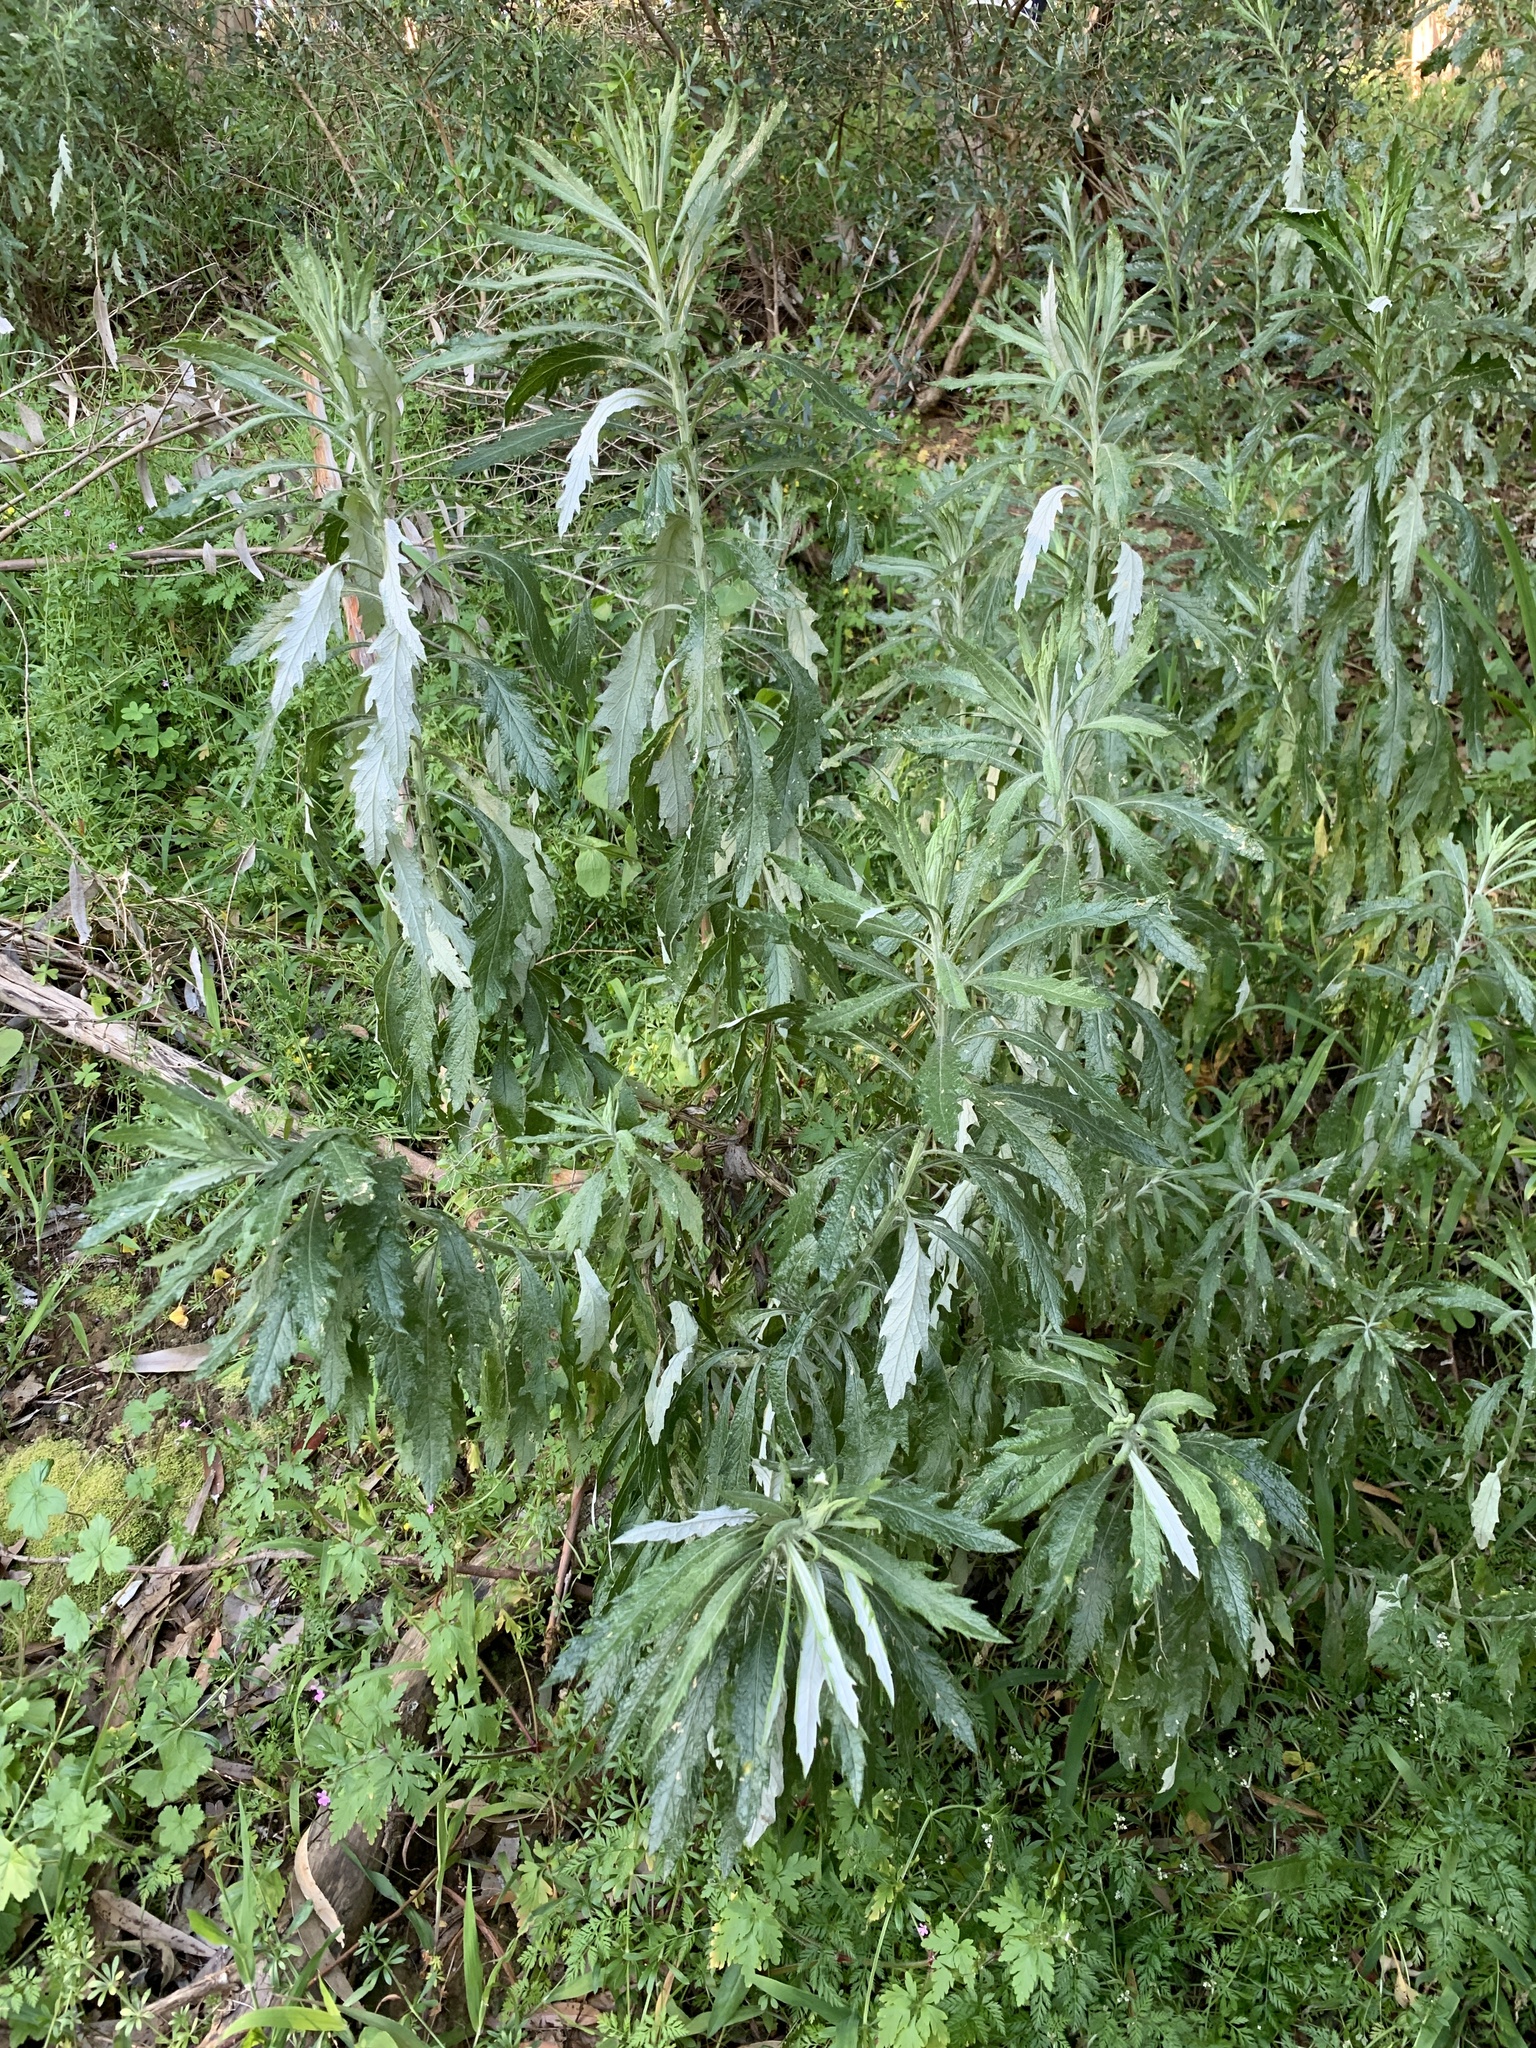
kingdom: Plantae
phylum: Tracheophyta
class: Magnoliopsida
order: Asterales
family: Asteraceae
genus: Senecio
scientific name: Senecio pterophorus
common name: Shoddy ragwort
